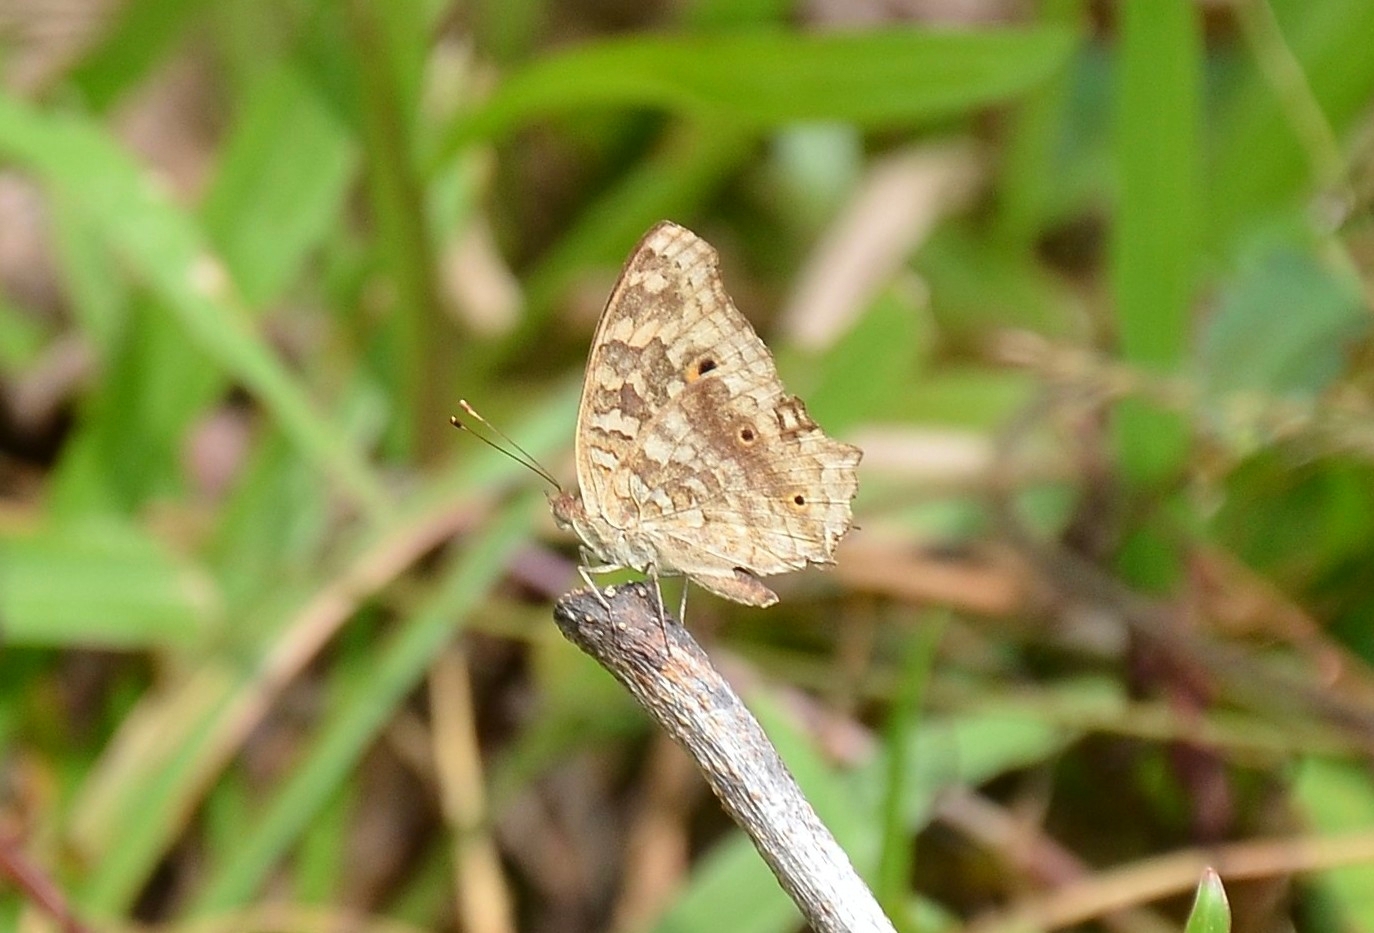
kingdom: Animalia
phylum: Arthropoda
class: Insecta
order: Lepidoptera
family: Nymphalidae
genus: Junonia
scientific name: Junonia lemonias
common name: Lemon pansy
